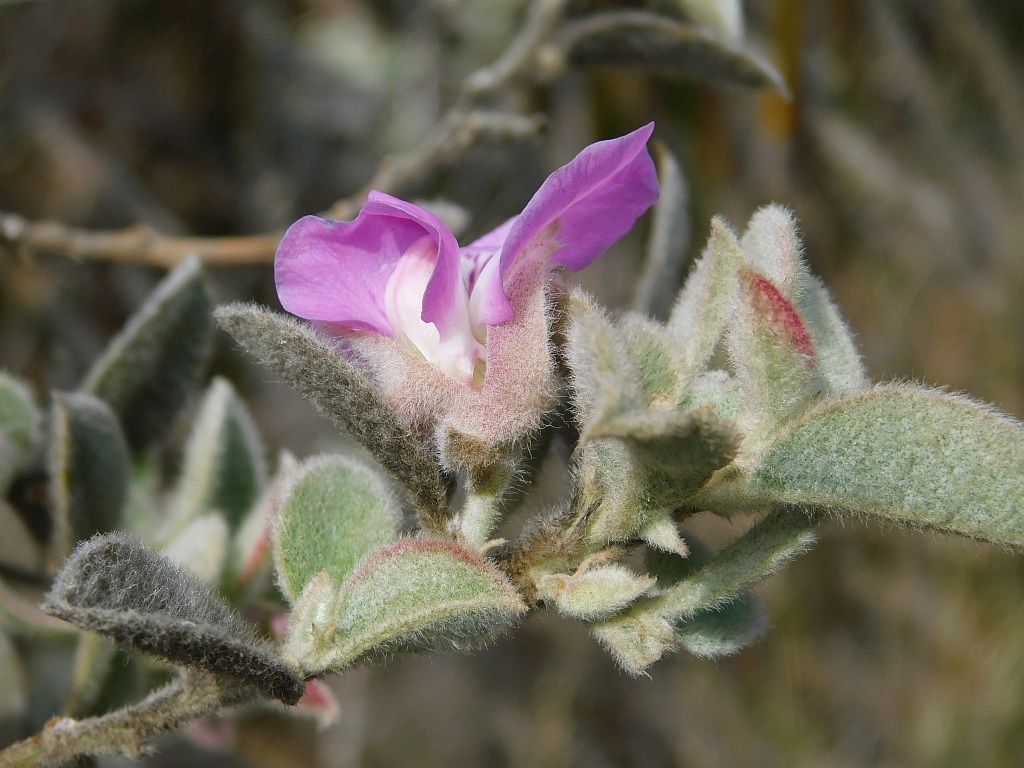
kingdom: Plantae
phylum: Tracheophyta
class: Magnoliopsida
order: Fabales
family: Fabaceae
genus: Podalyria
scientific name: Podalyria hirsuta
